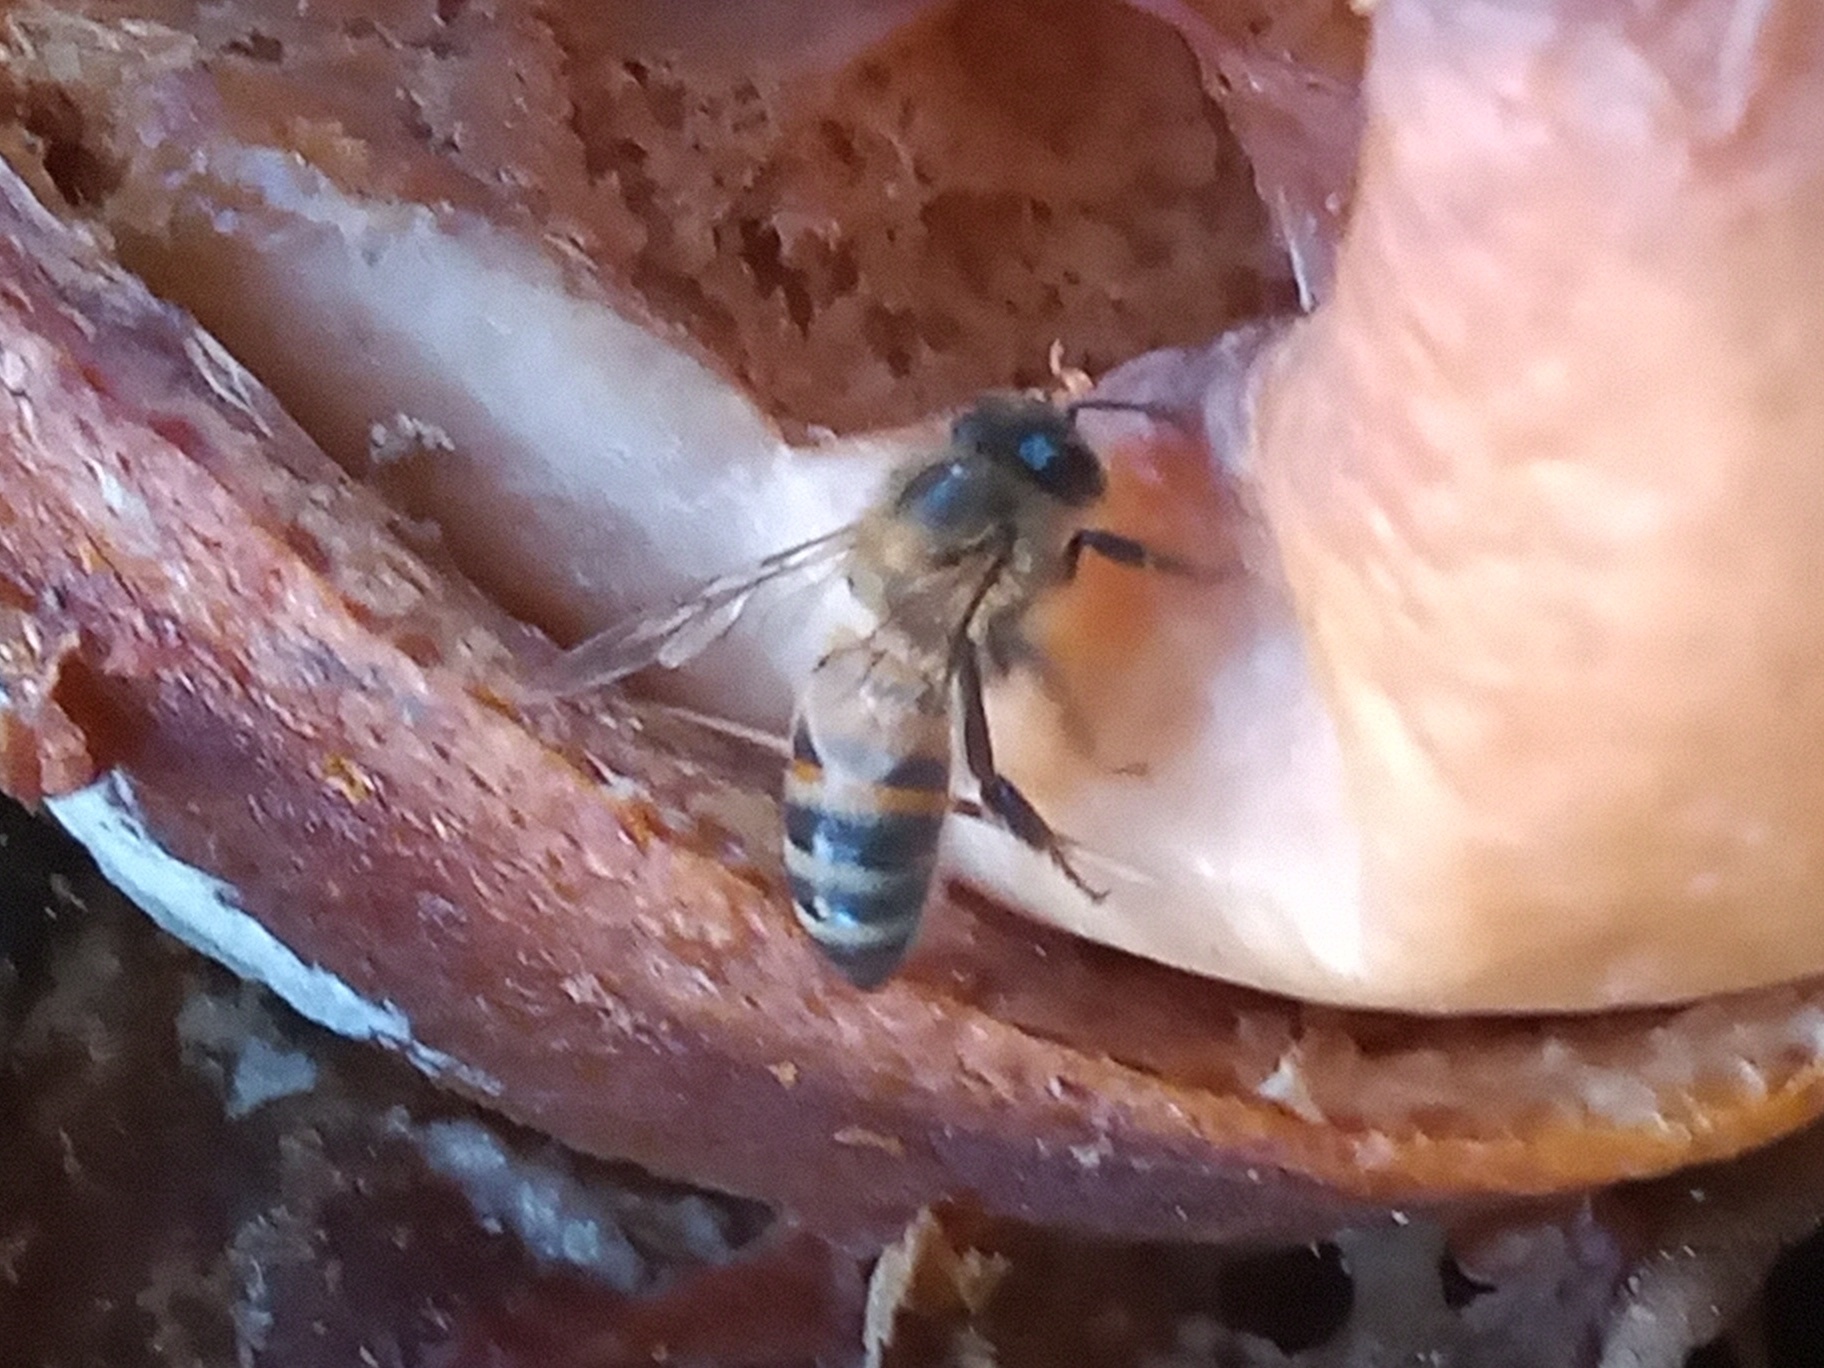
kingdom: Animalia
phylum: Arthropoda
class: Insecta
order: Hymenoptera
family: Apidae
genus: Apis
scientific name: Apis mellifera
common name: Honey bee
